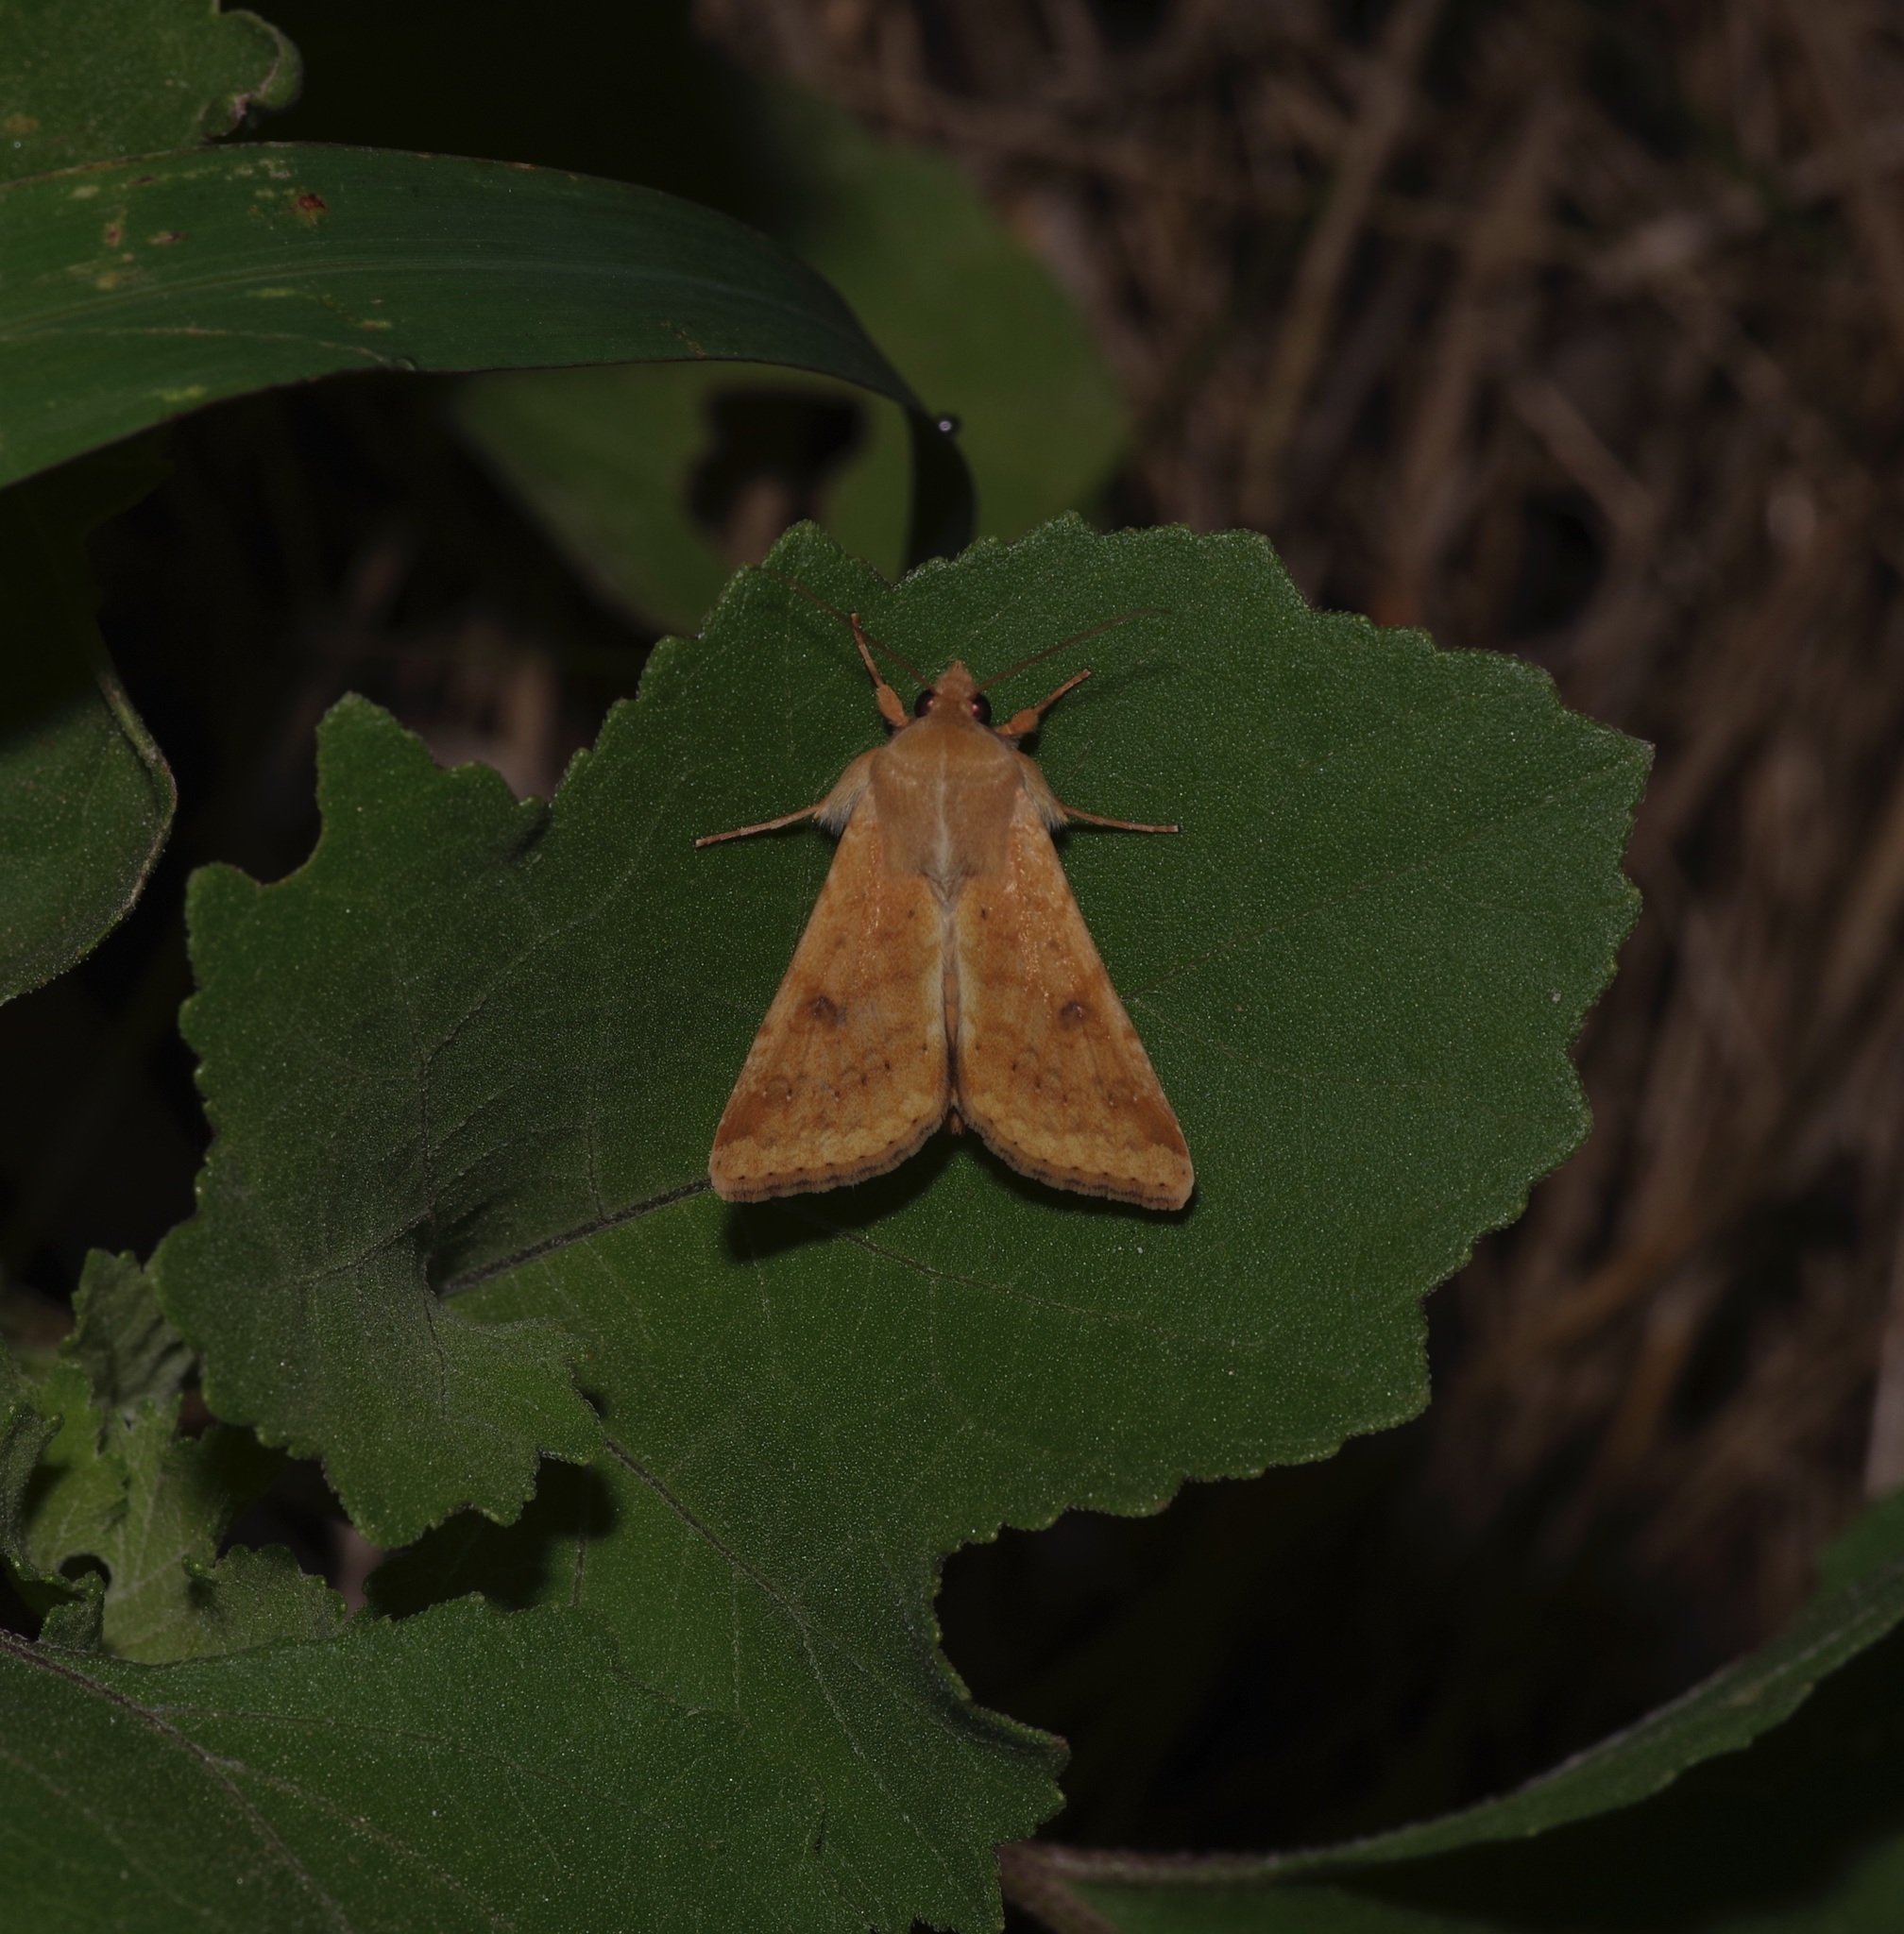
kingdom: Animalia
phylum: Arthropoda
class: Insecta
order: Lepidoptera
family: Noctuidae
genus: Helicoverpa
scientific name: Helicoverpa zea
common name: Bollworm
